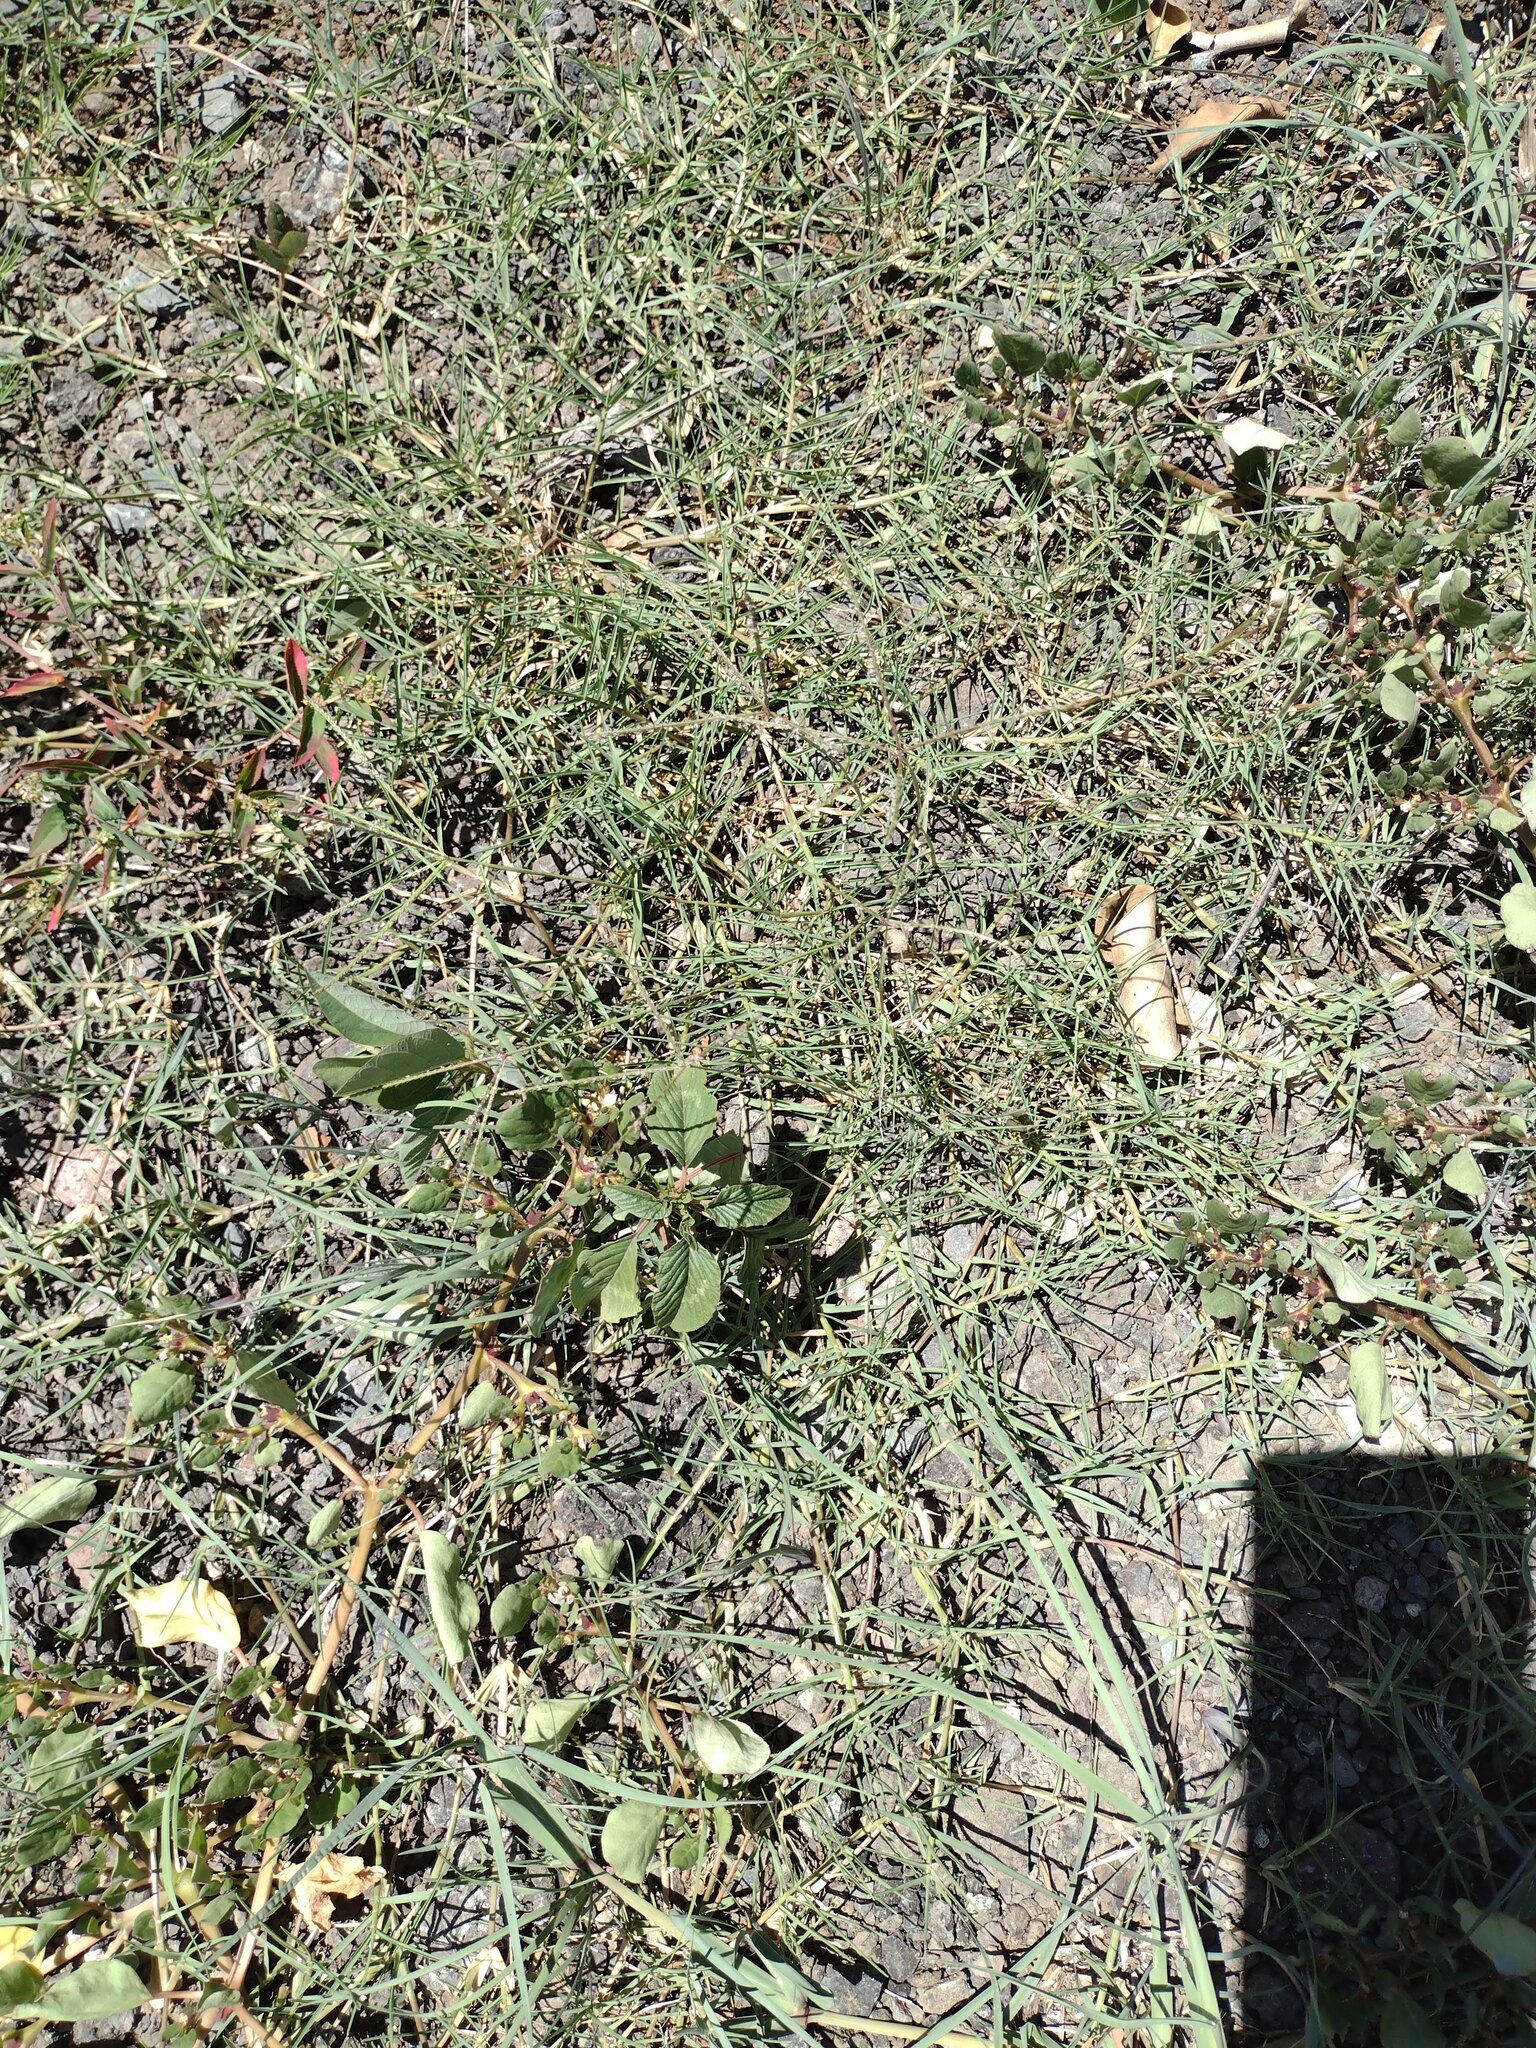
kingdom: Plantae
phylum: Tracheophyta
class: Liliopsida
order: Poales
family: Poaceae
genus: Cynodon
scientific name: Cynodon dactylon
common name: Bermuda grass
